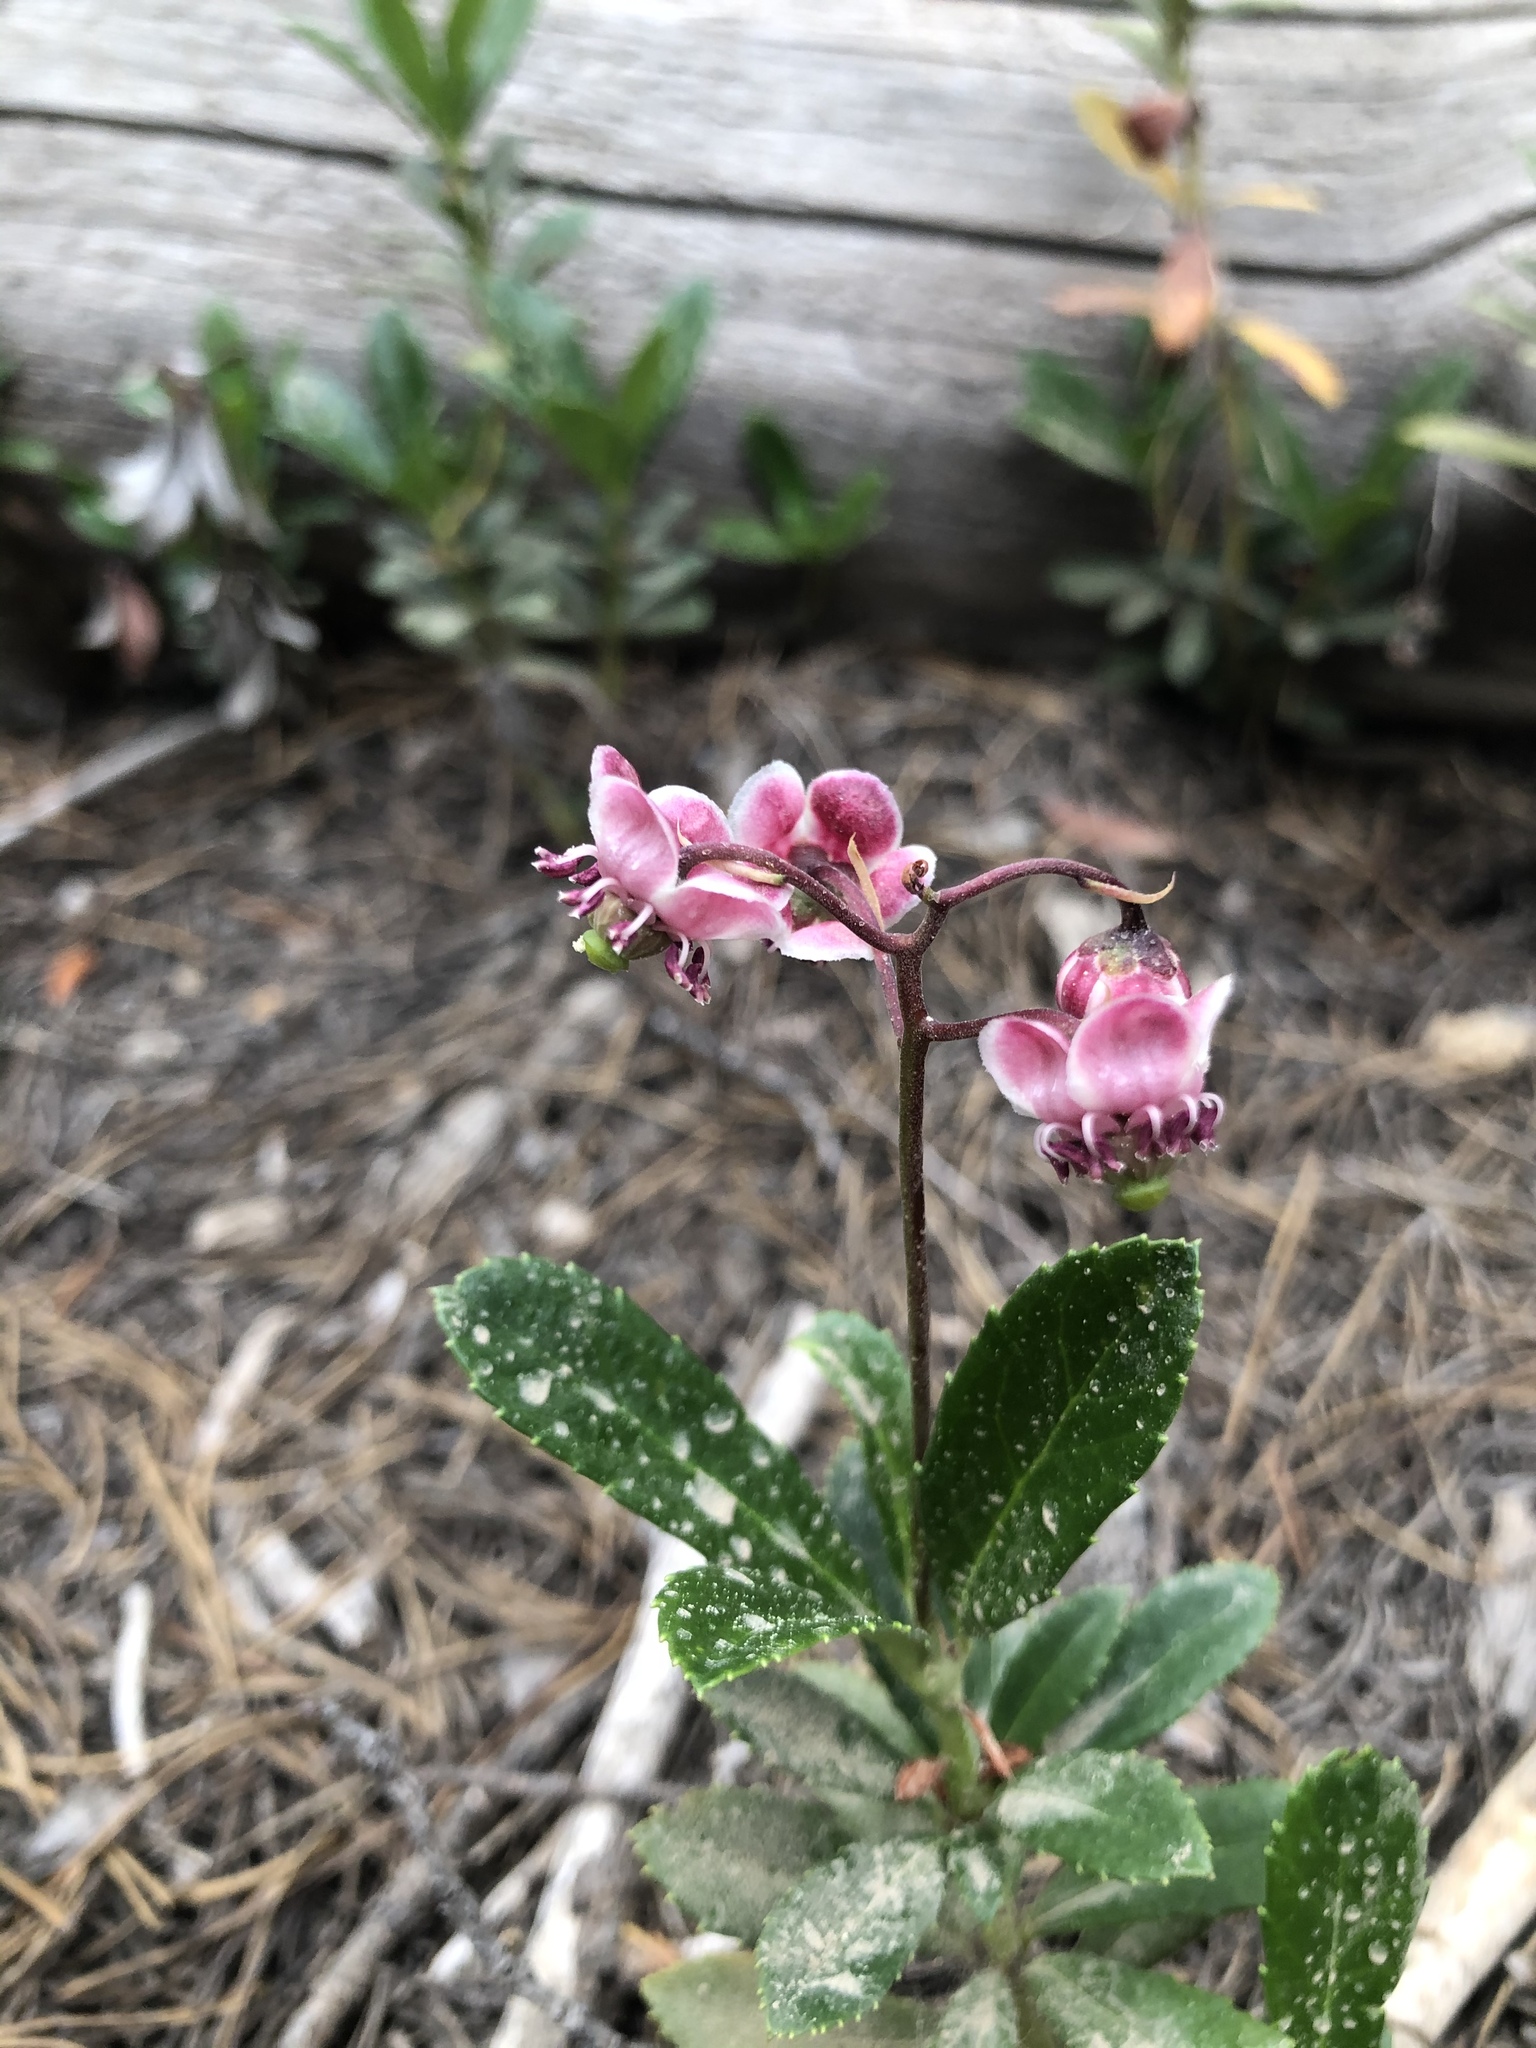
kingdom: Plantae
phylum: Tracheophyta
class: Magnoliopsida
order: Ericales
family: Ericaceae
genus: Chimaphila
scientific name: Chimaphila umbellata
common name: Pipsissewa
